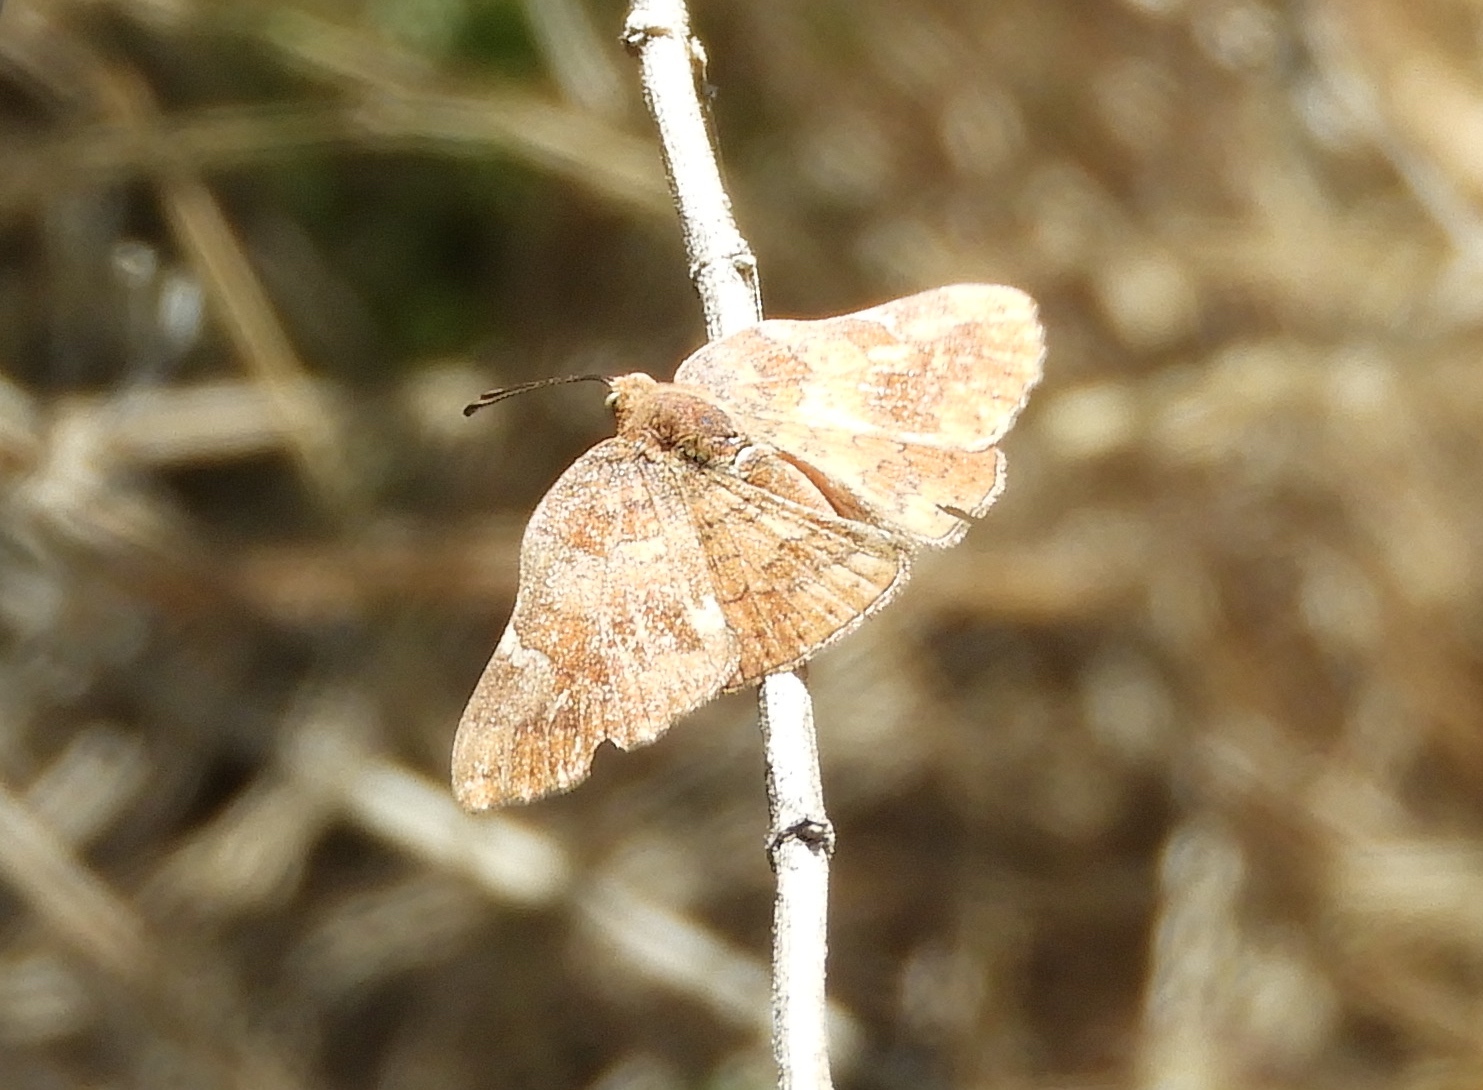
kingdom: Animalia
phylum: Arthropoda
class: Insecta
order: Lepidoptera
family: Riodinidae
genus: Curvie
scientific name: Curvie emesia
